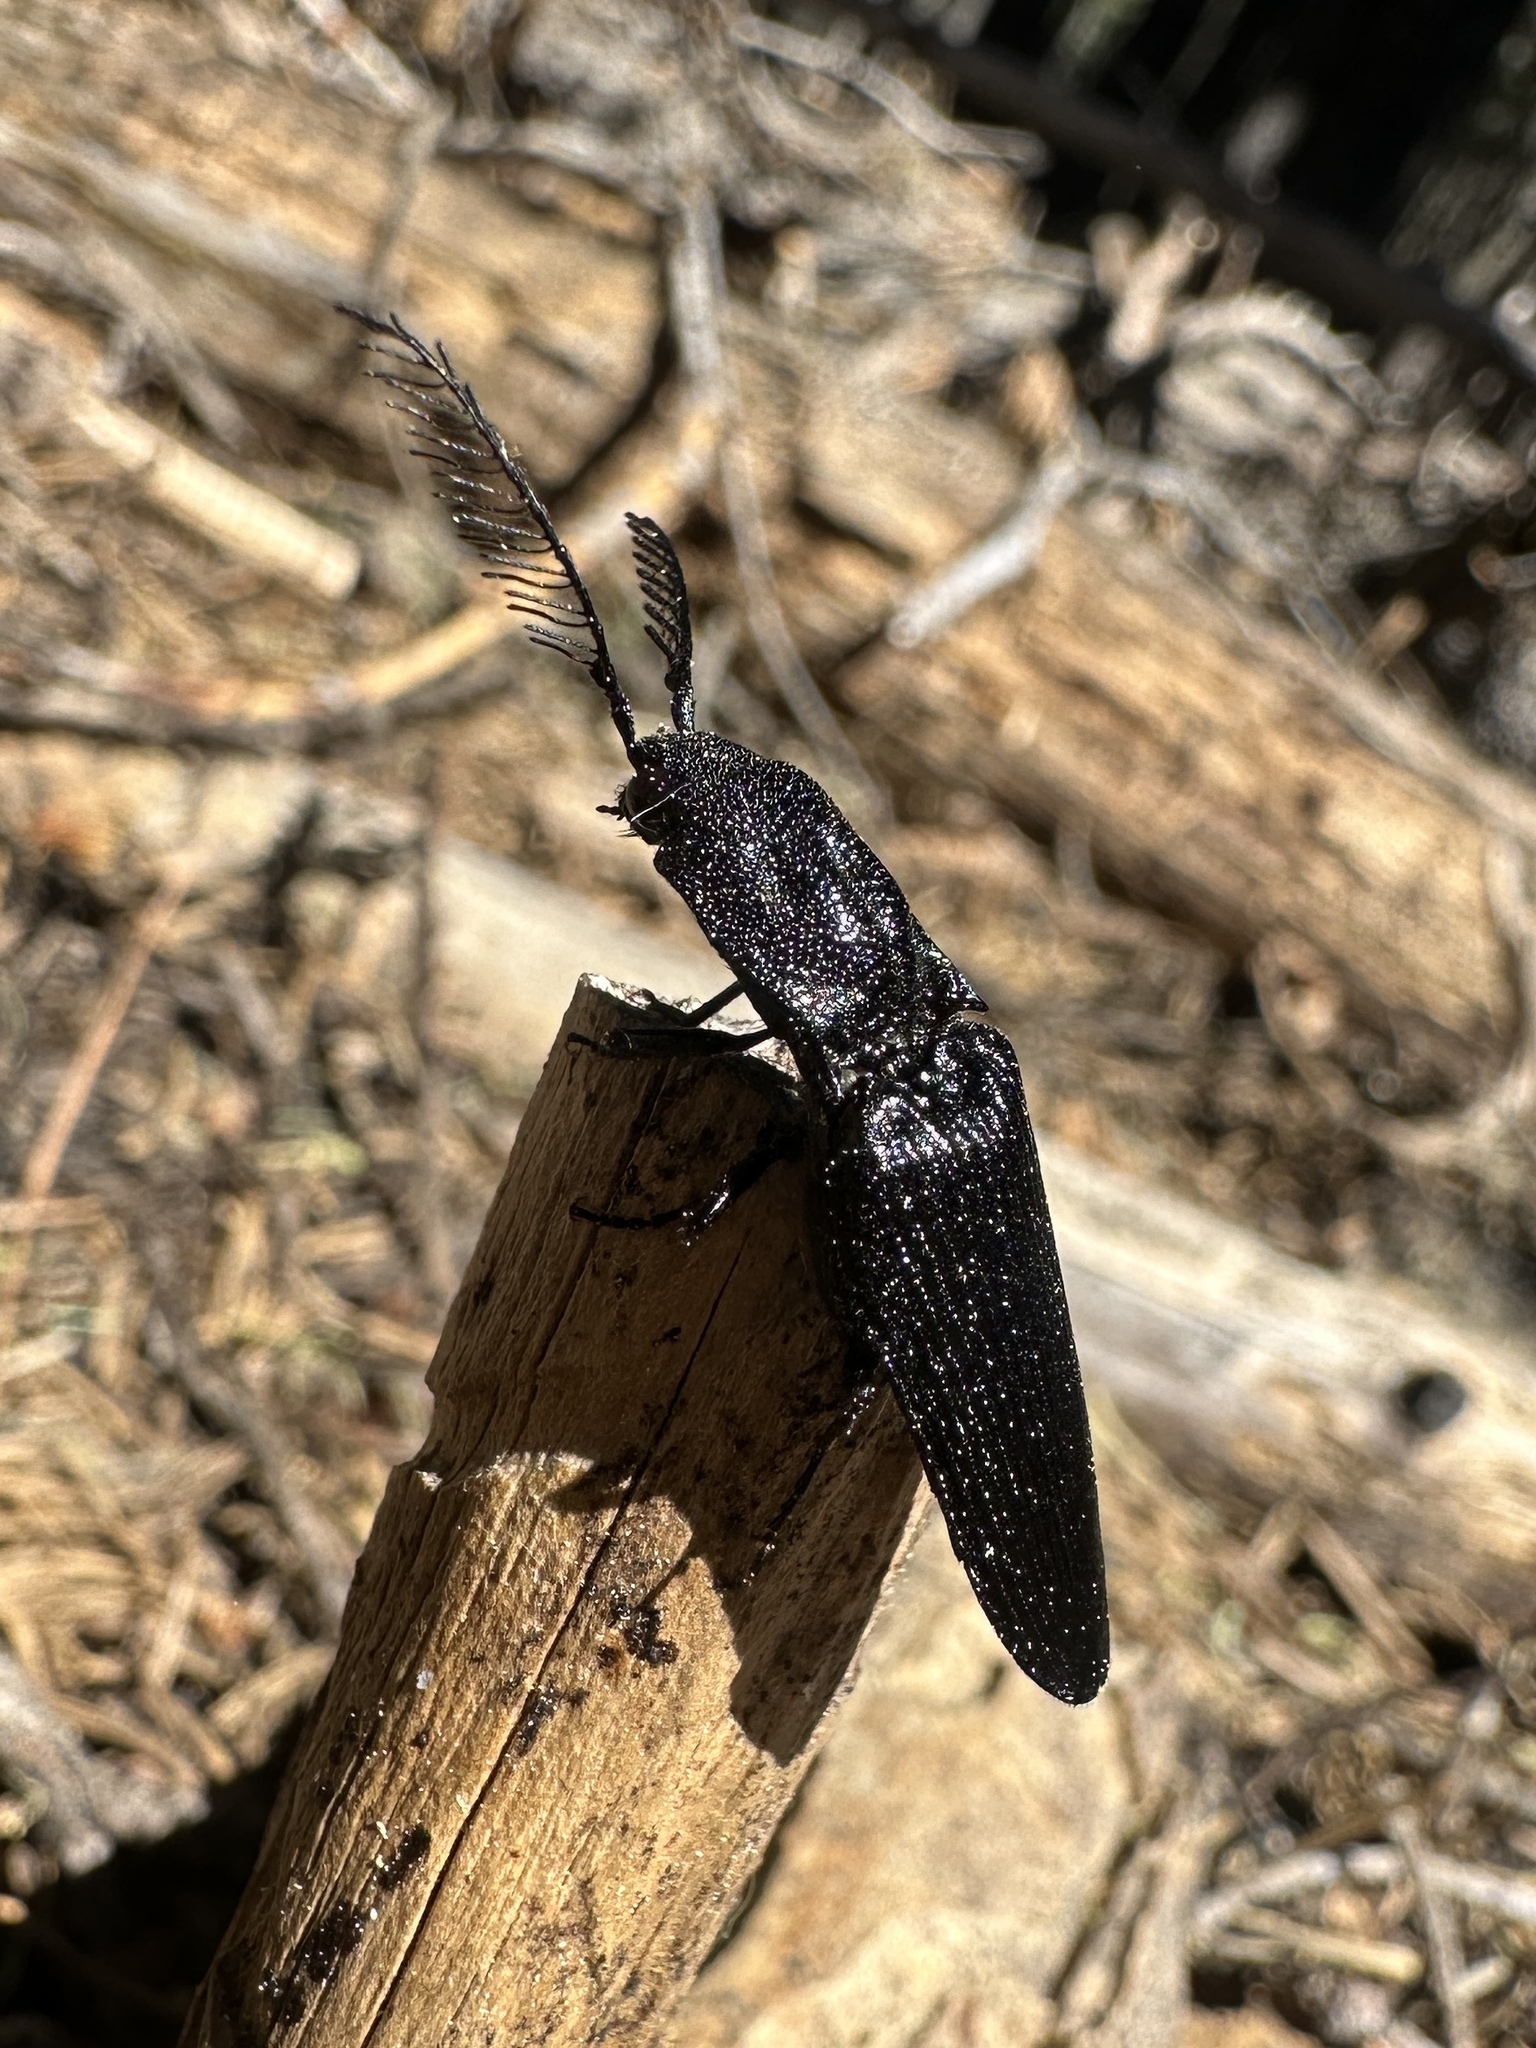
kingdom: Animalia
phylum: Arthropoda
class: Insecta
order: Coleoptera
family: Elateridae
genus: Pityobius
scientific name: Pityobius
